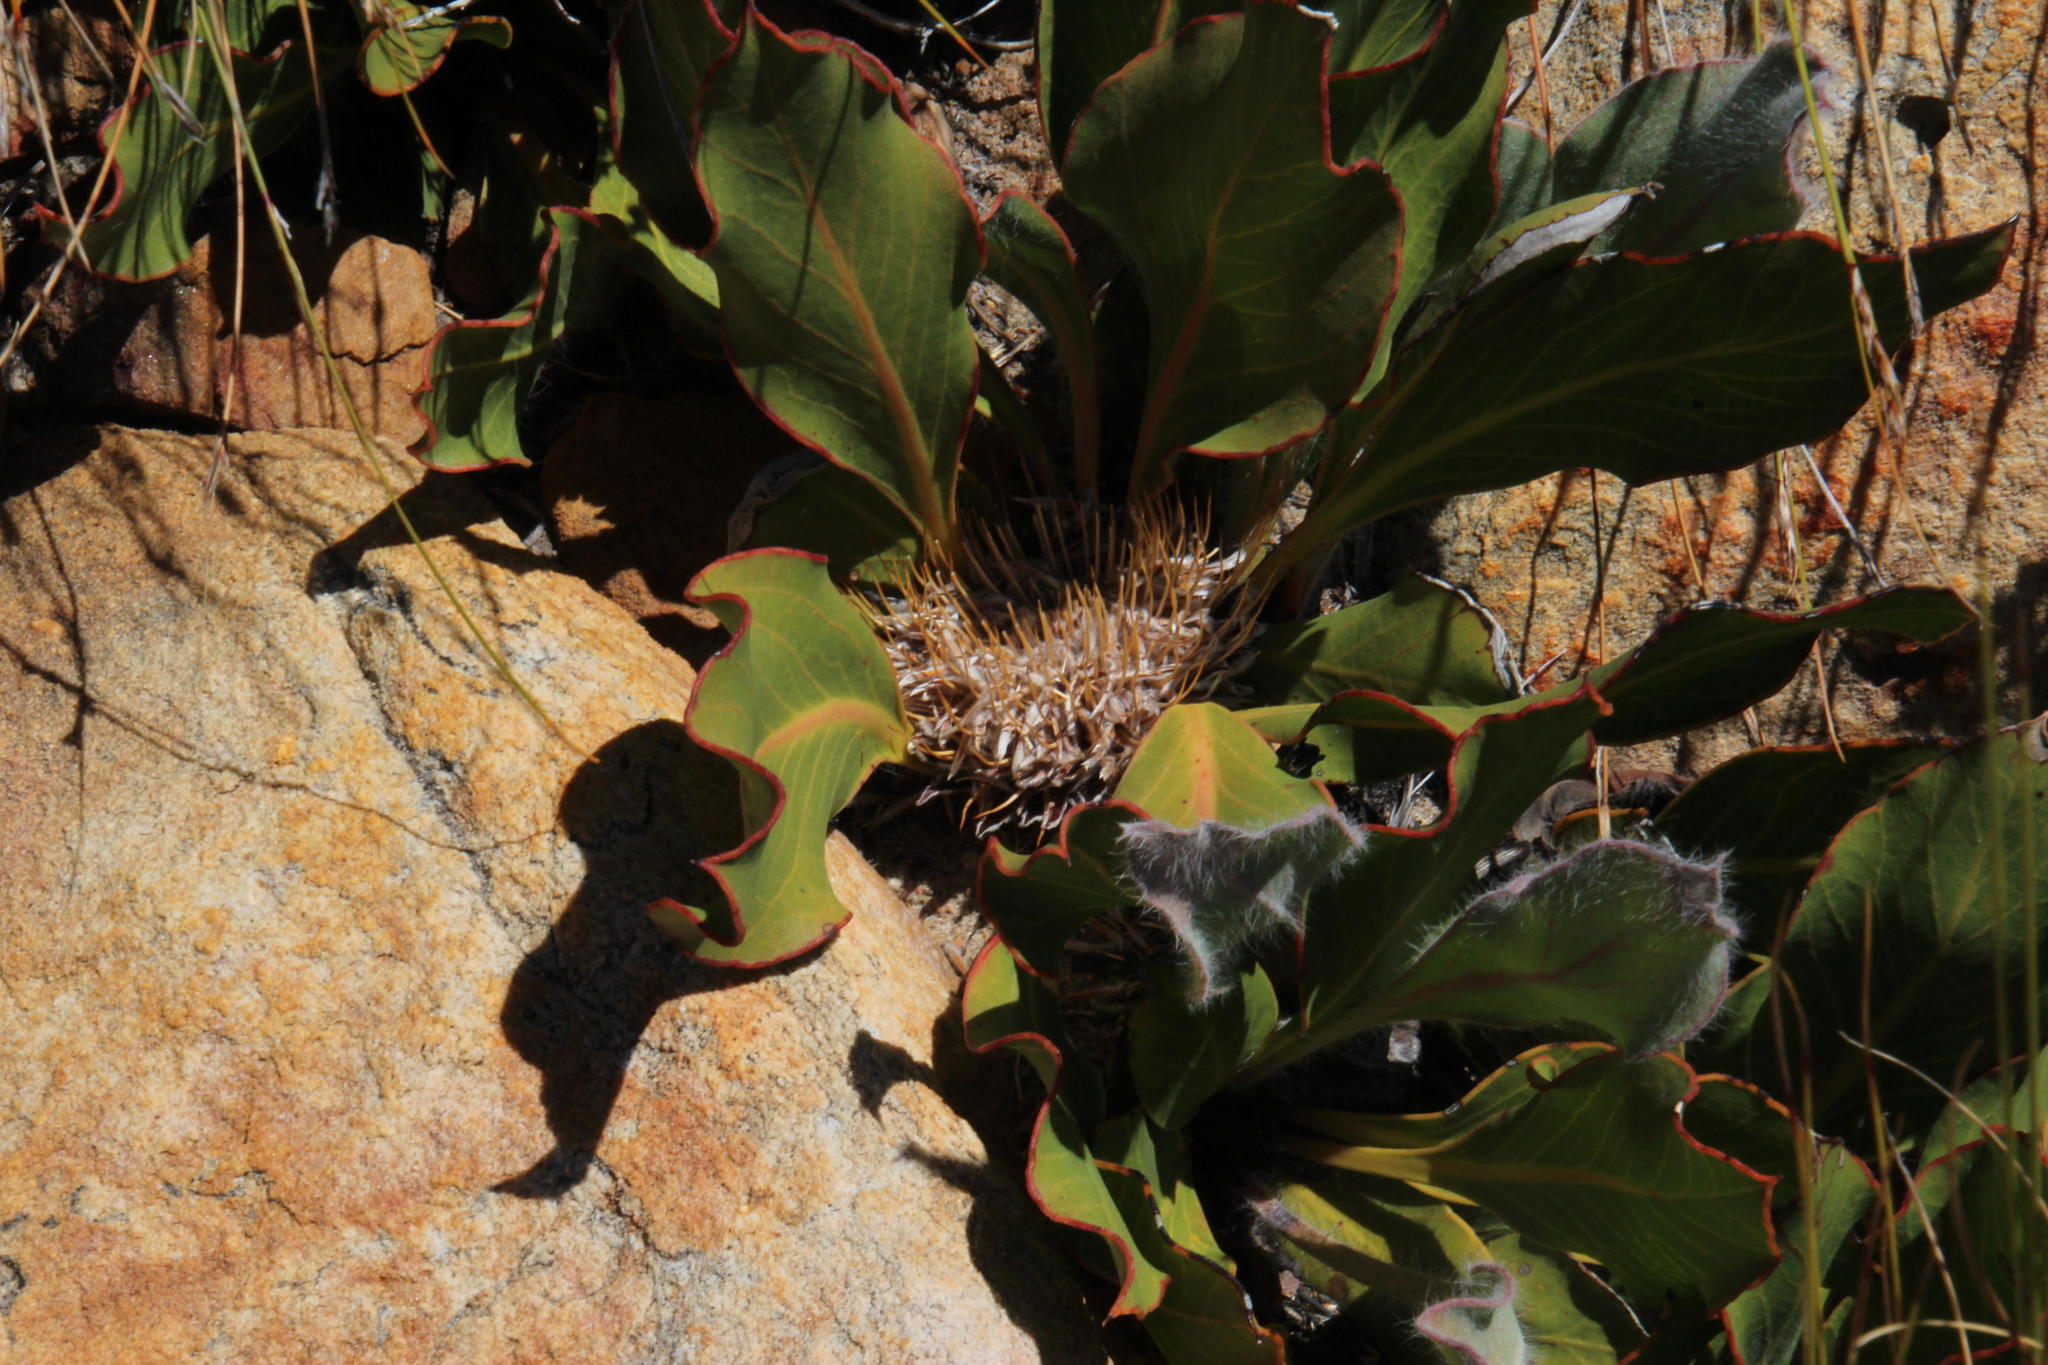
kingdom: Plantae
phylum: Tracheophyta
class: Magnoliopsida
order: Proteales
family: Proteaceae
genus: Protea
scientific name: Protea scolopendriifolia
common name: Harts-tongue-fern sugarbush
